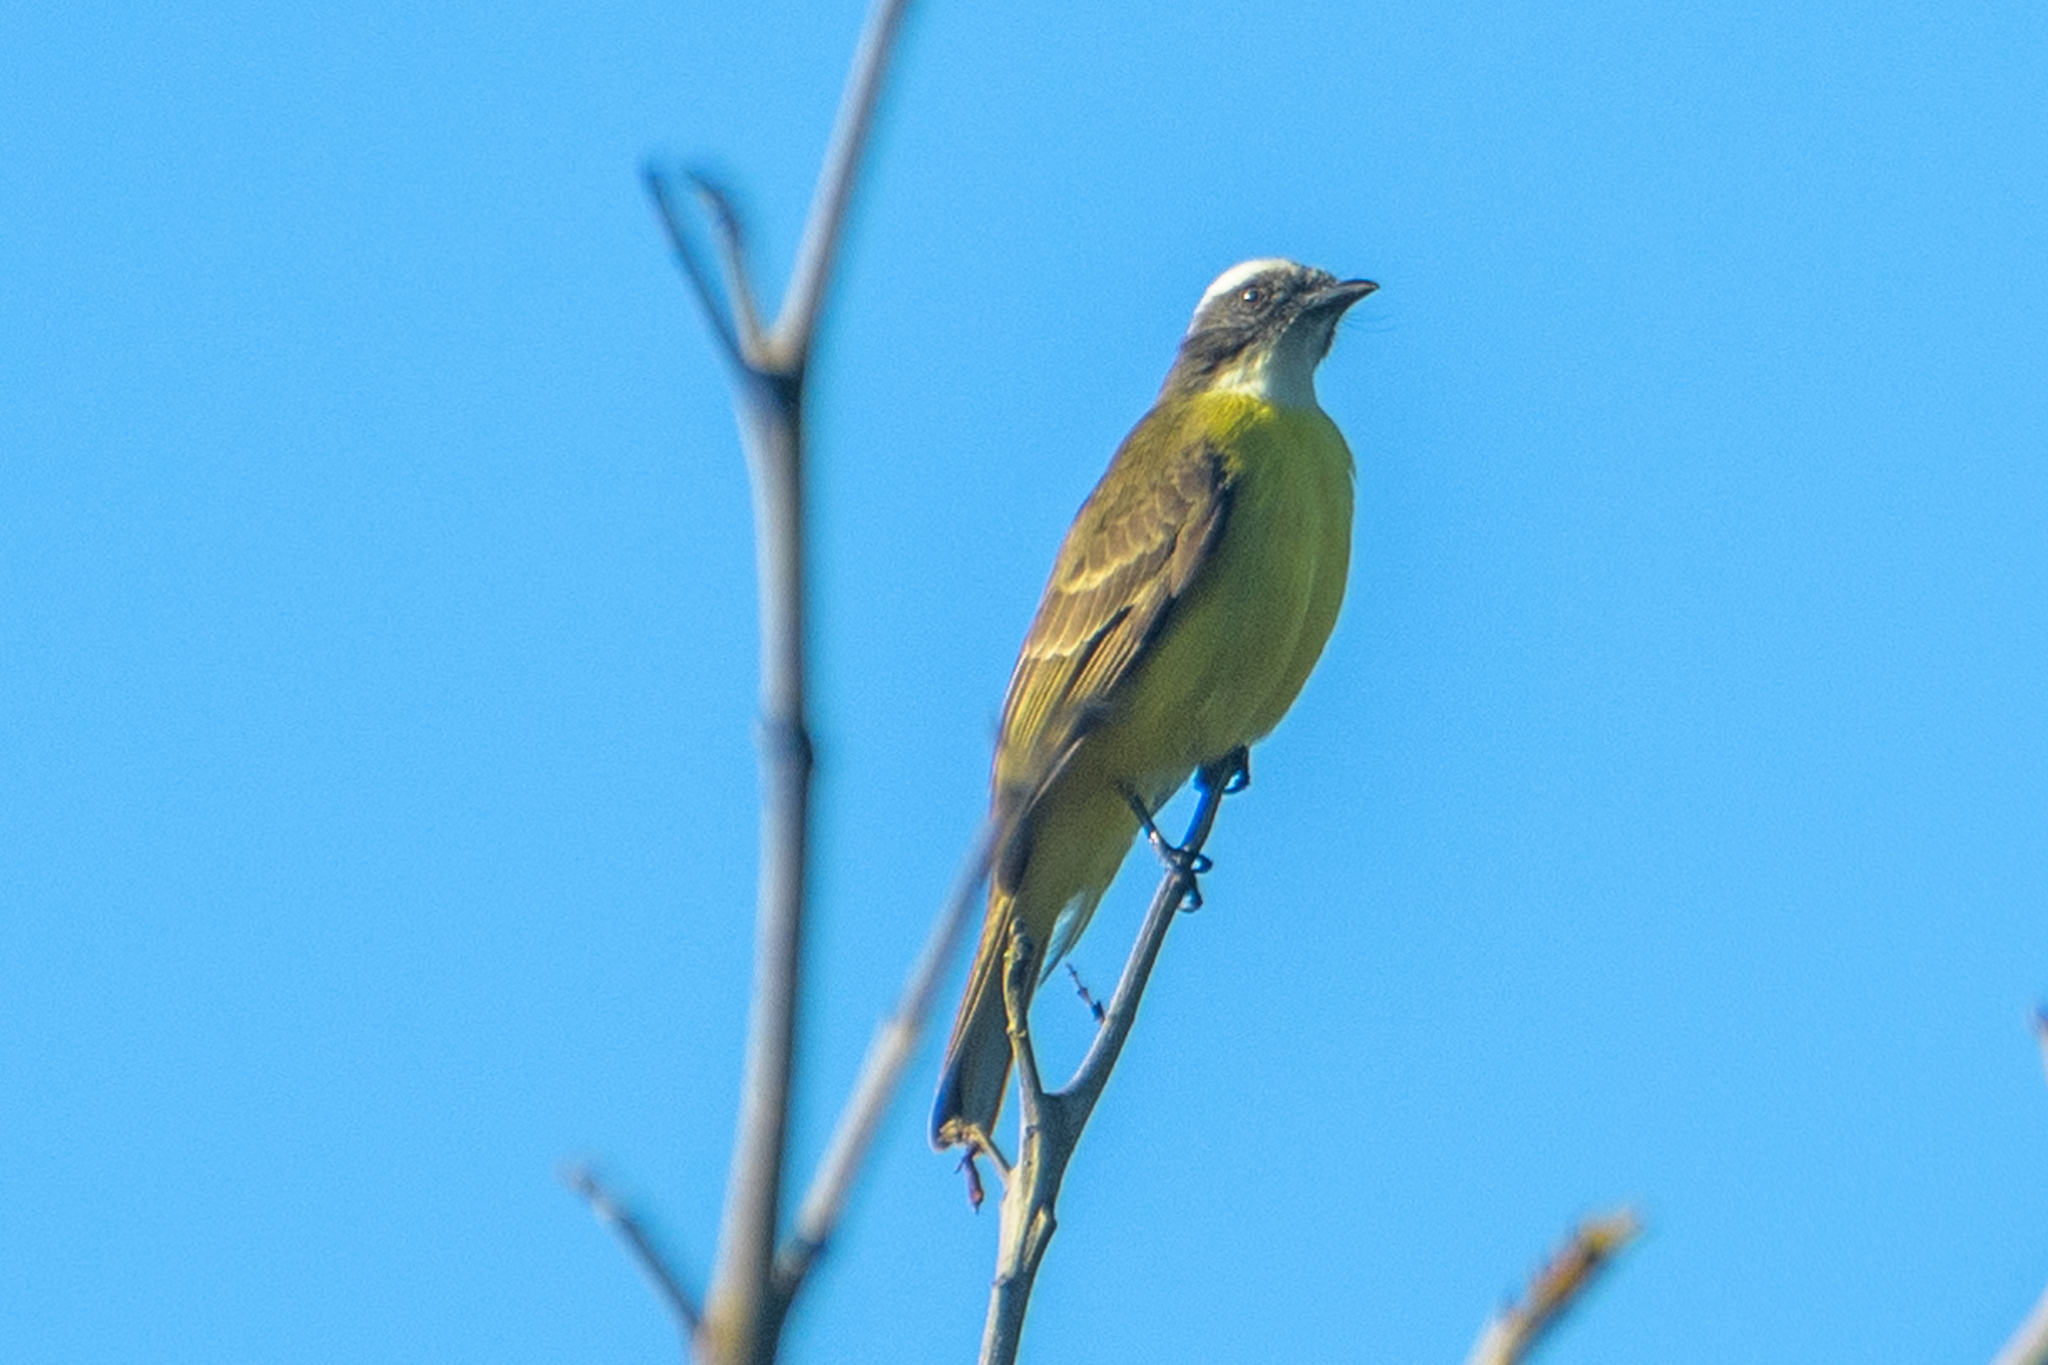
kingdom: Animalia
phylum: Chordata
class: Aves
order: Passeriformes
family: Tyrannidae
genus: Myiozetetes
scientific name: Myiozetetes similis
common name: Social flycatcher
